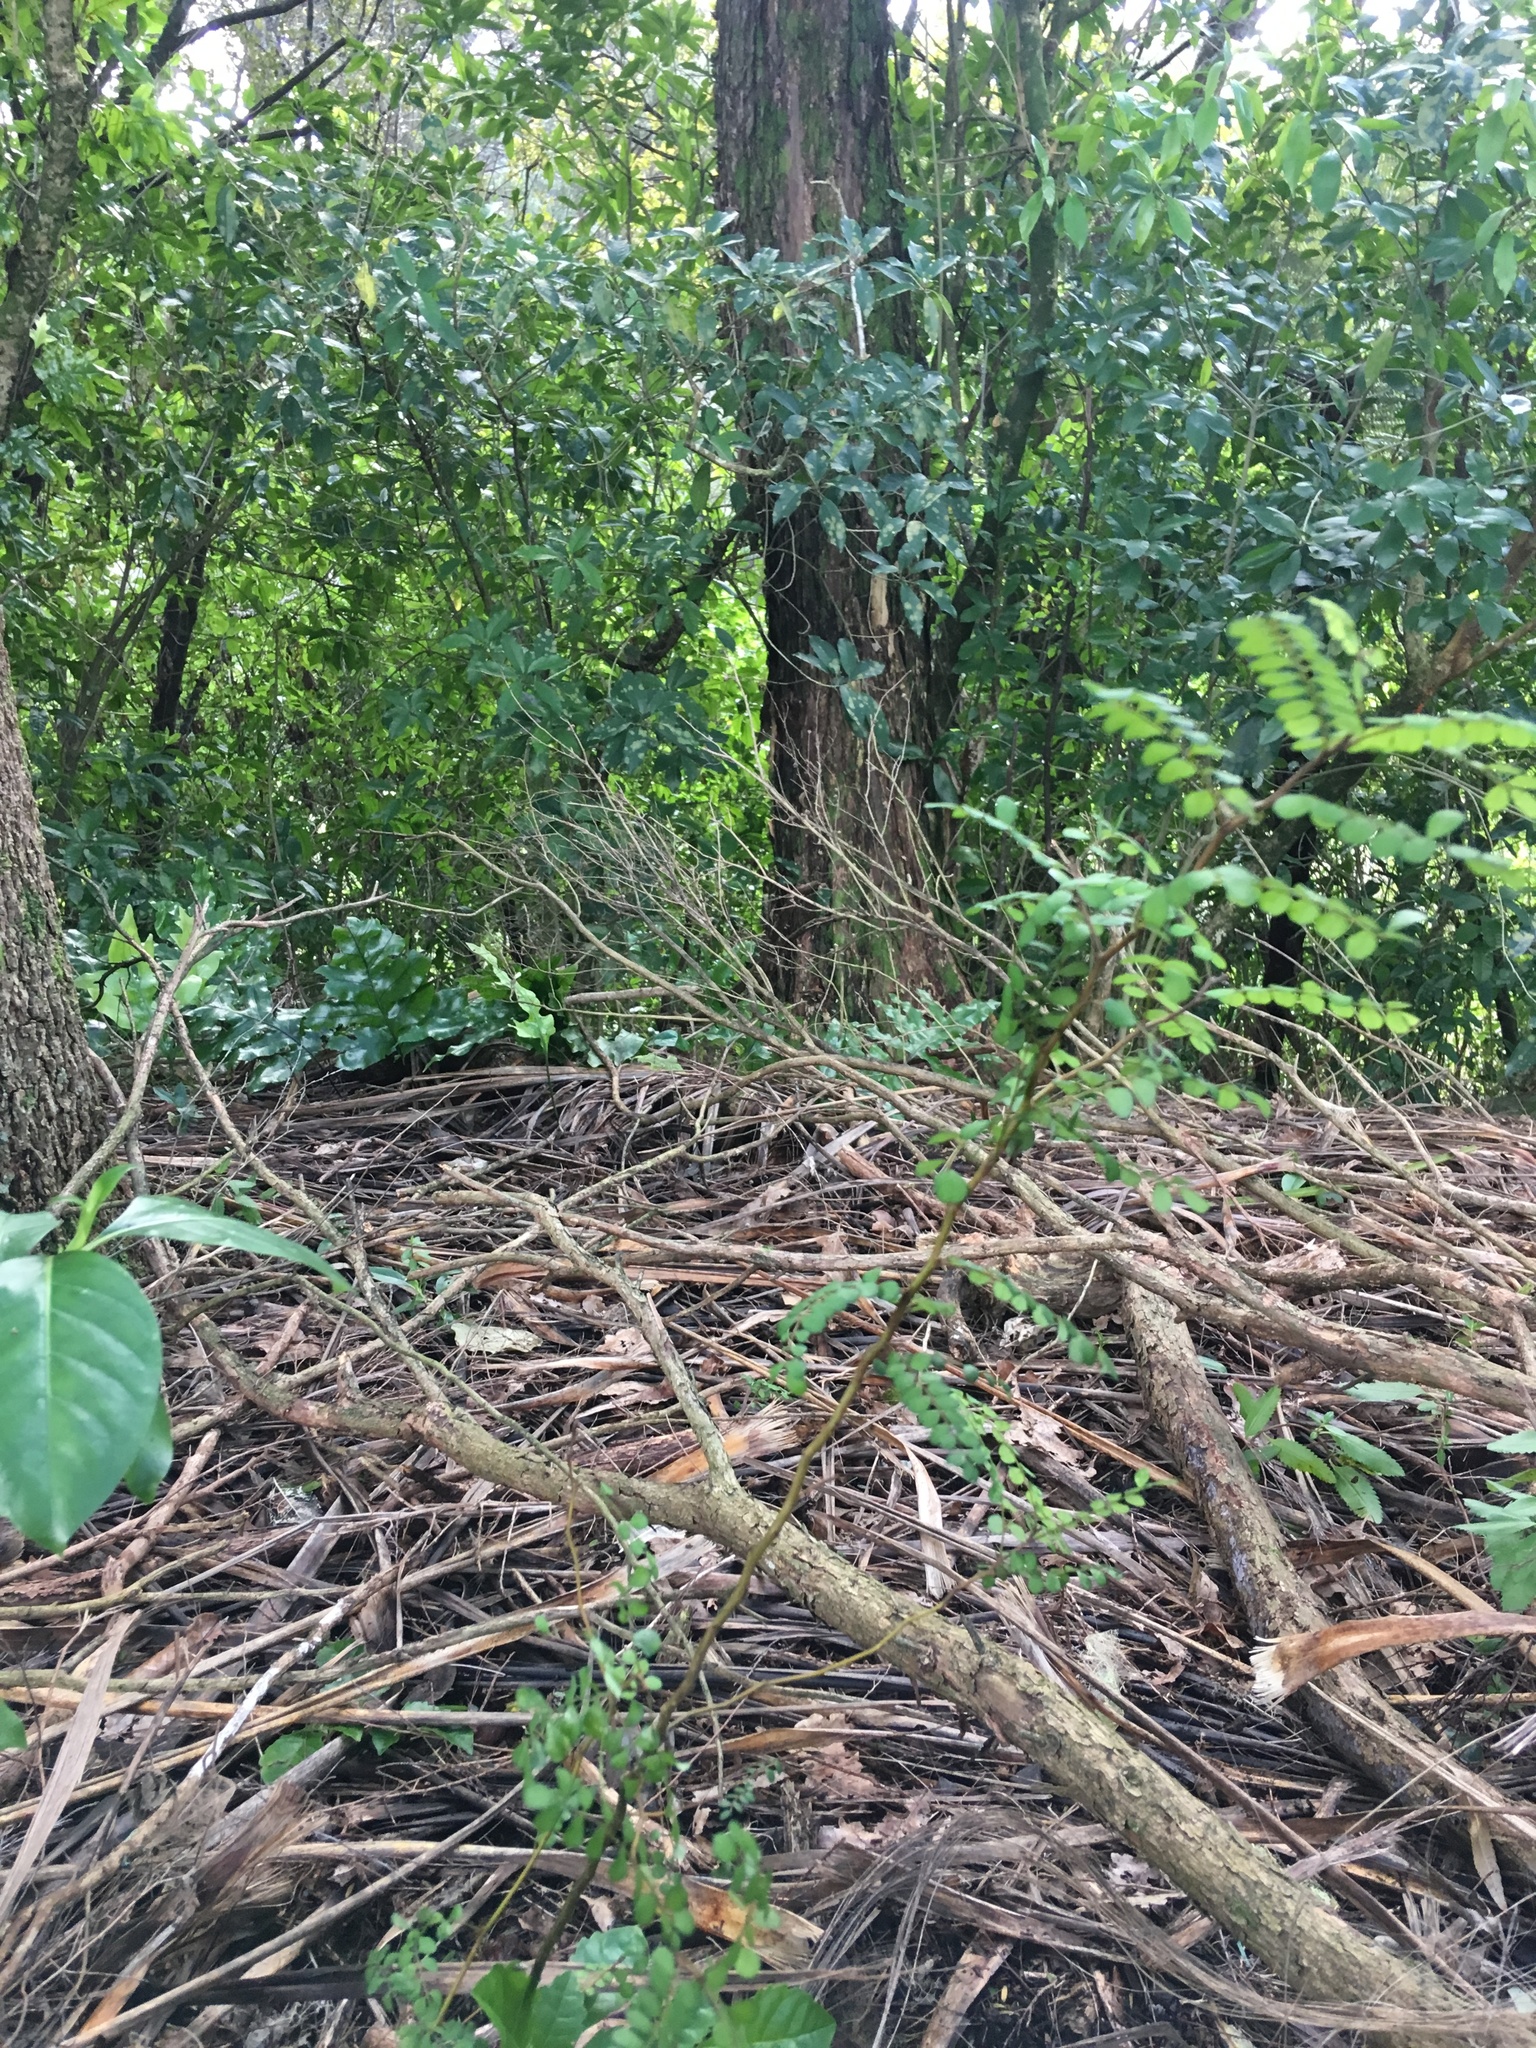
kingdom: Plantae
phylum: Tracheophyta
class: Magnoliopsida
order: Lamiales
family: Lamiaceae
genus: Vitex
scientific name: Vitex lucens
